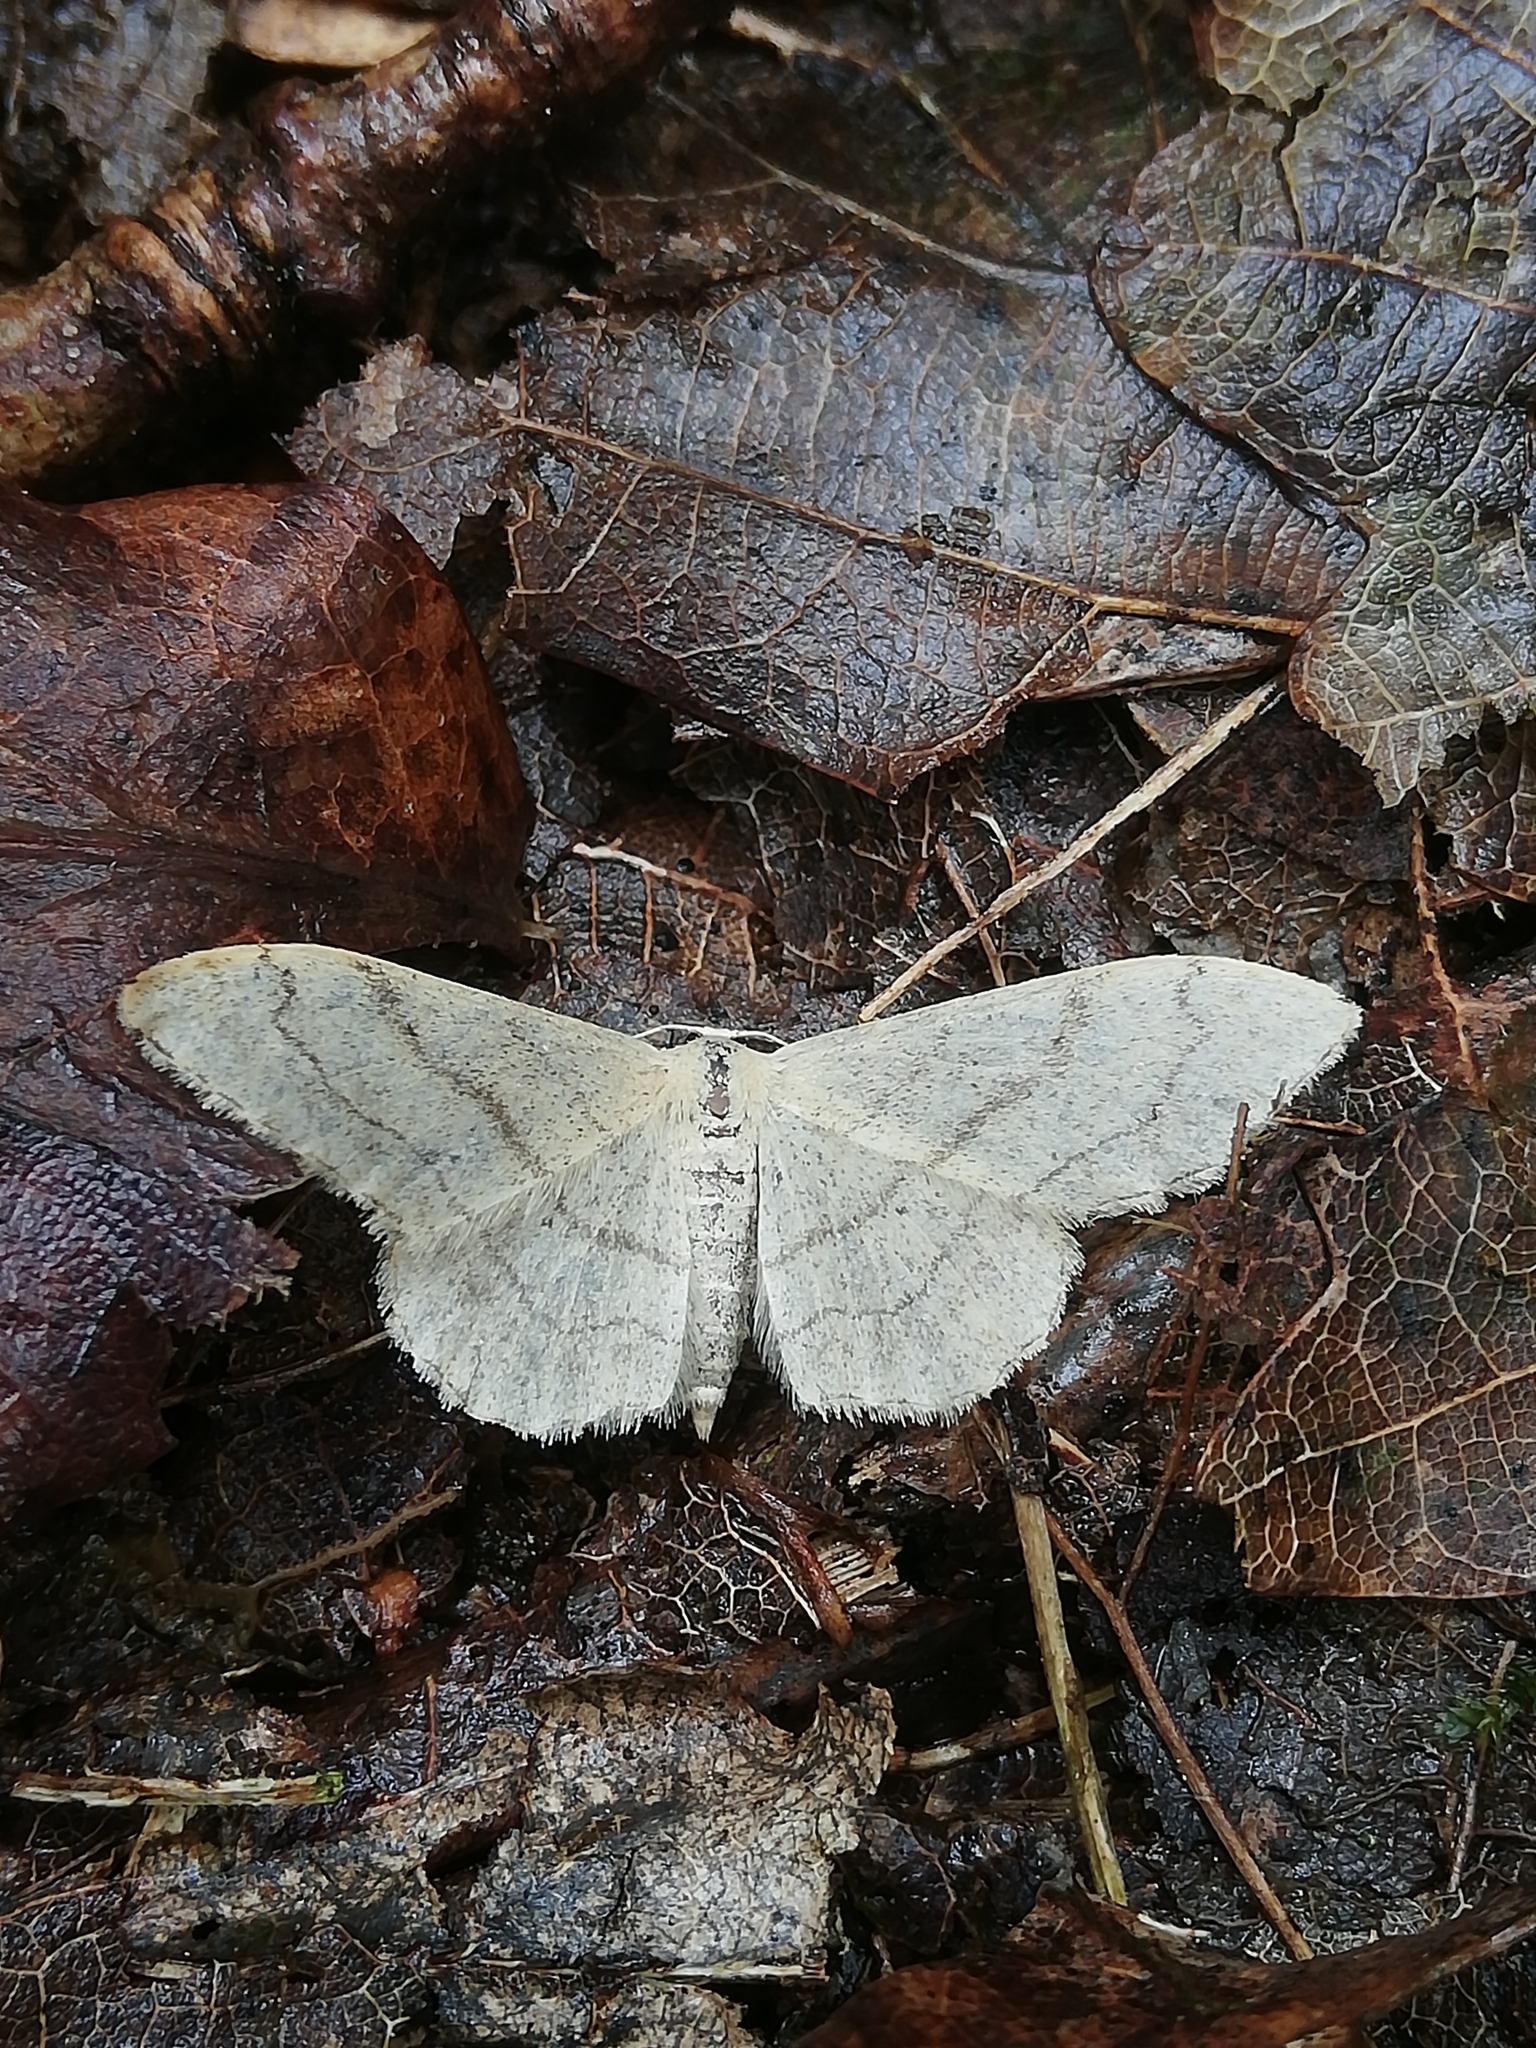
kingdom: Animalia
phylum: Arthropoda
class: Insecta
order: Lepidoptera
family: Geometridae
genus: Idaea
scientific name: Idaea aversata
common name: Riband wave
